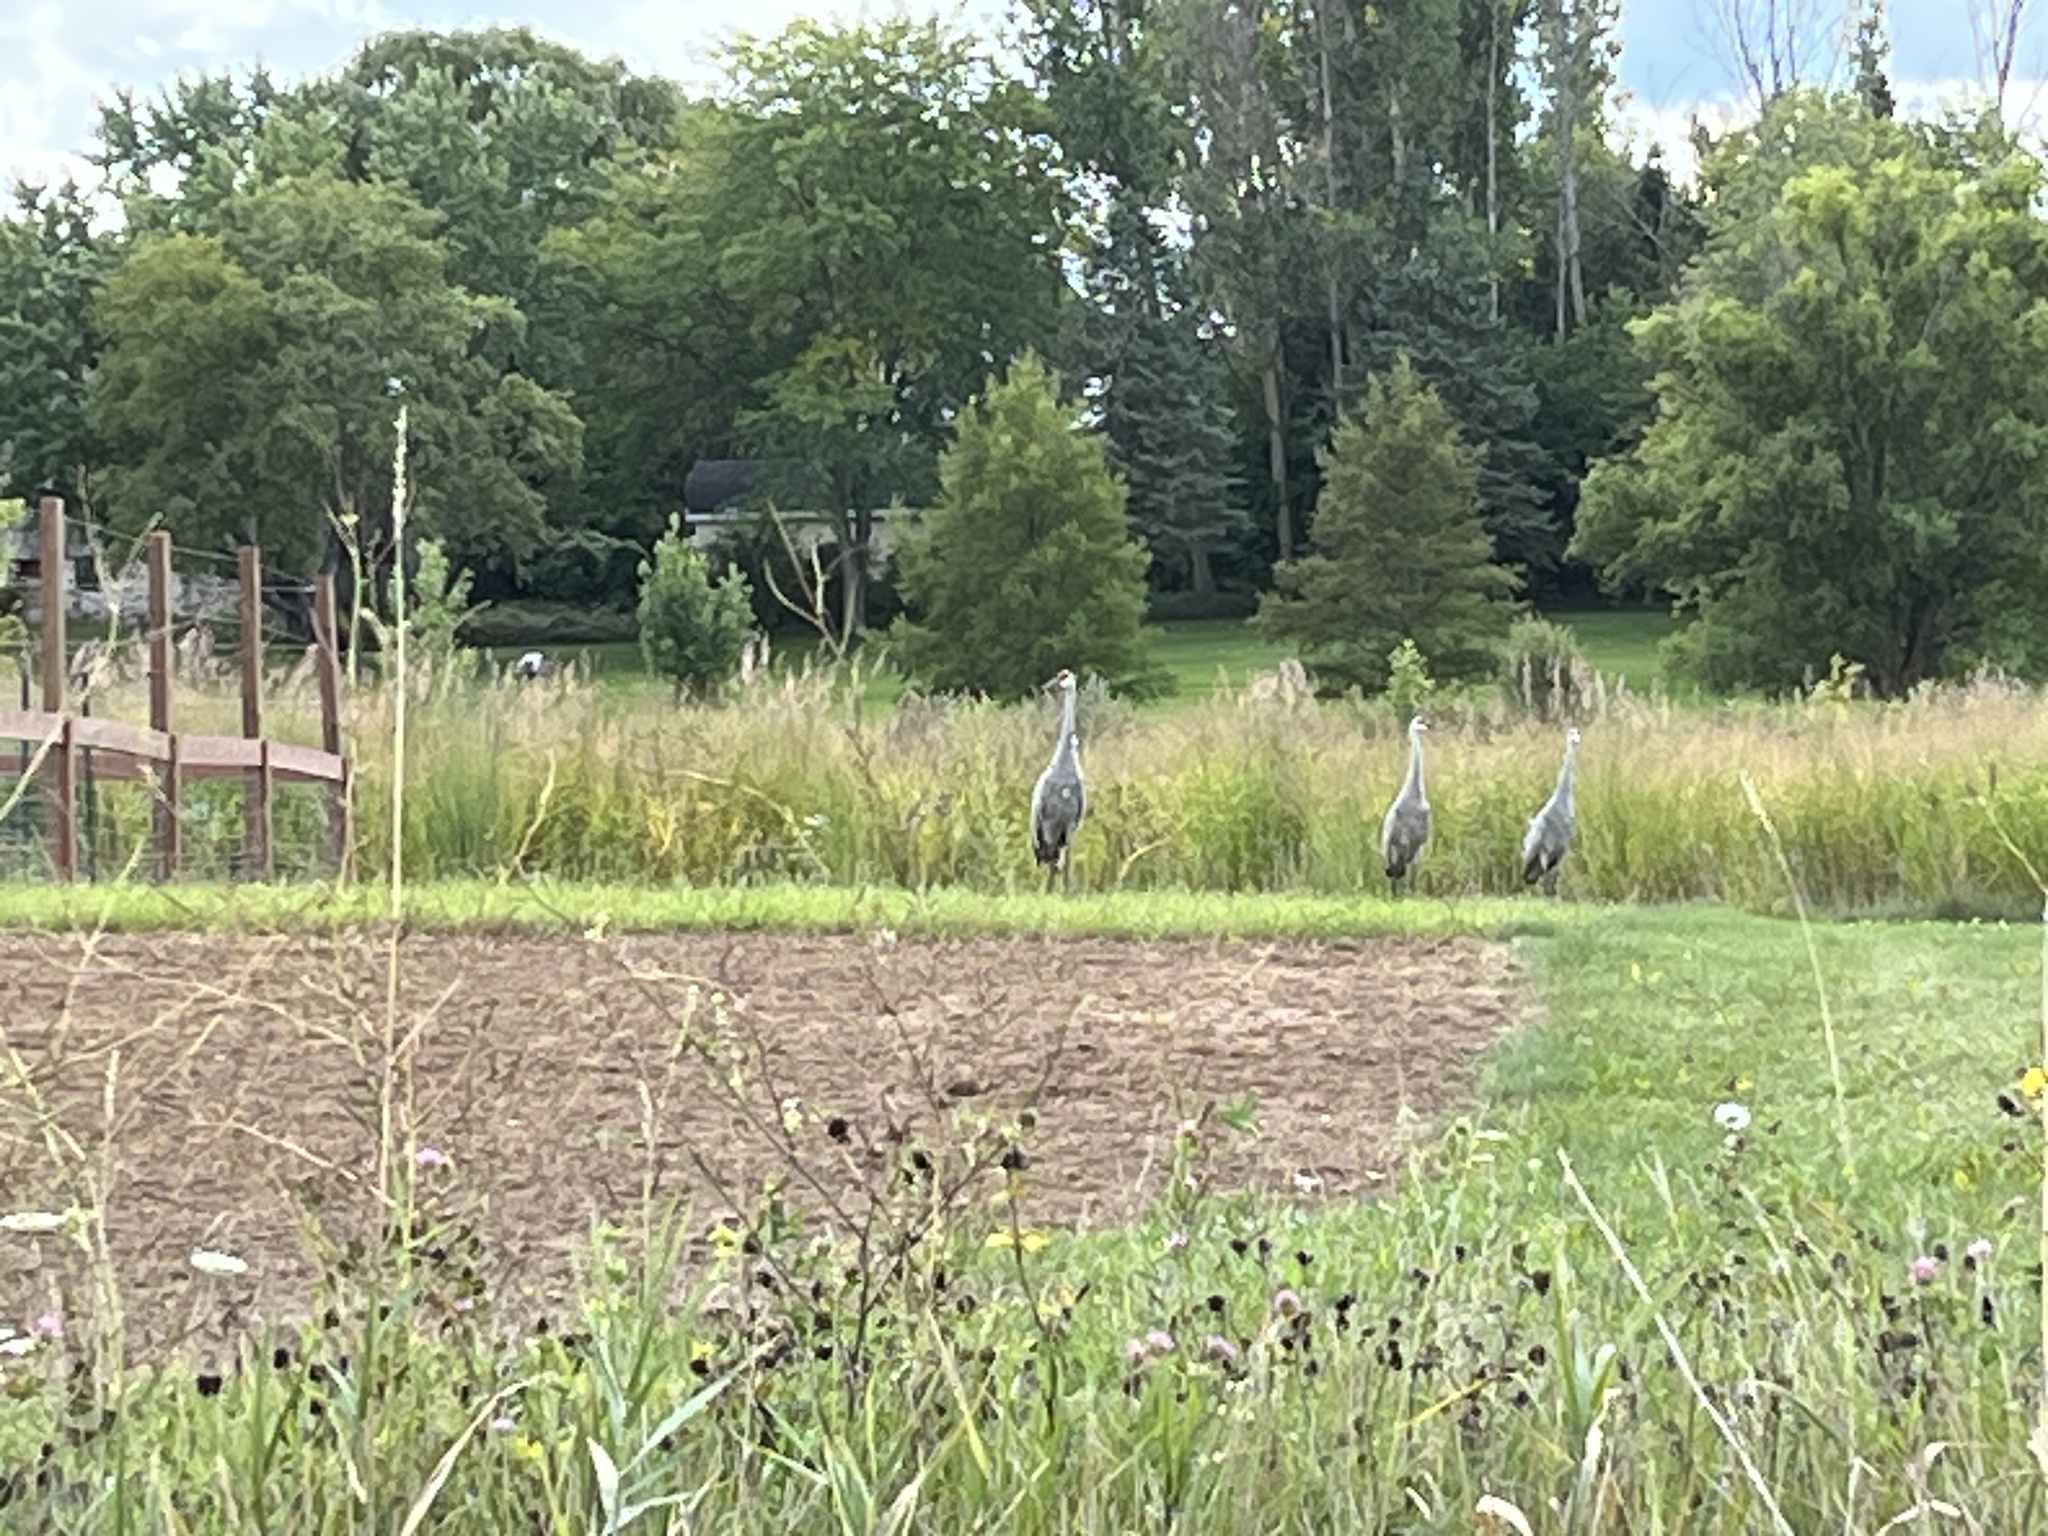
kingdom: Animalia
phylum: Chordata
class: Aves
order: Gruiformes
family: Gruidae
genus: Grus
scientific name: Grus canadensis
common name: Sandhill crane
